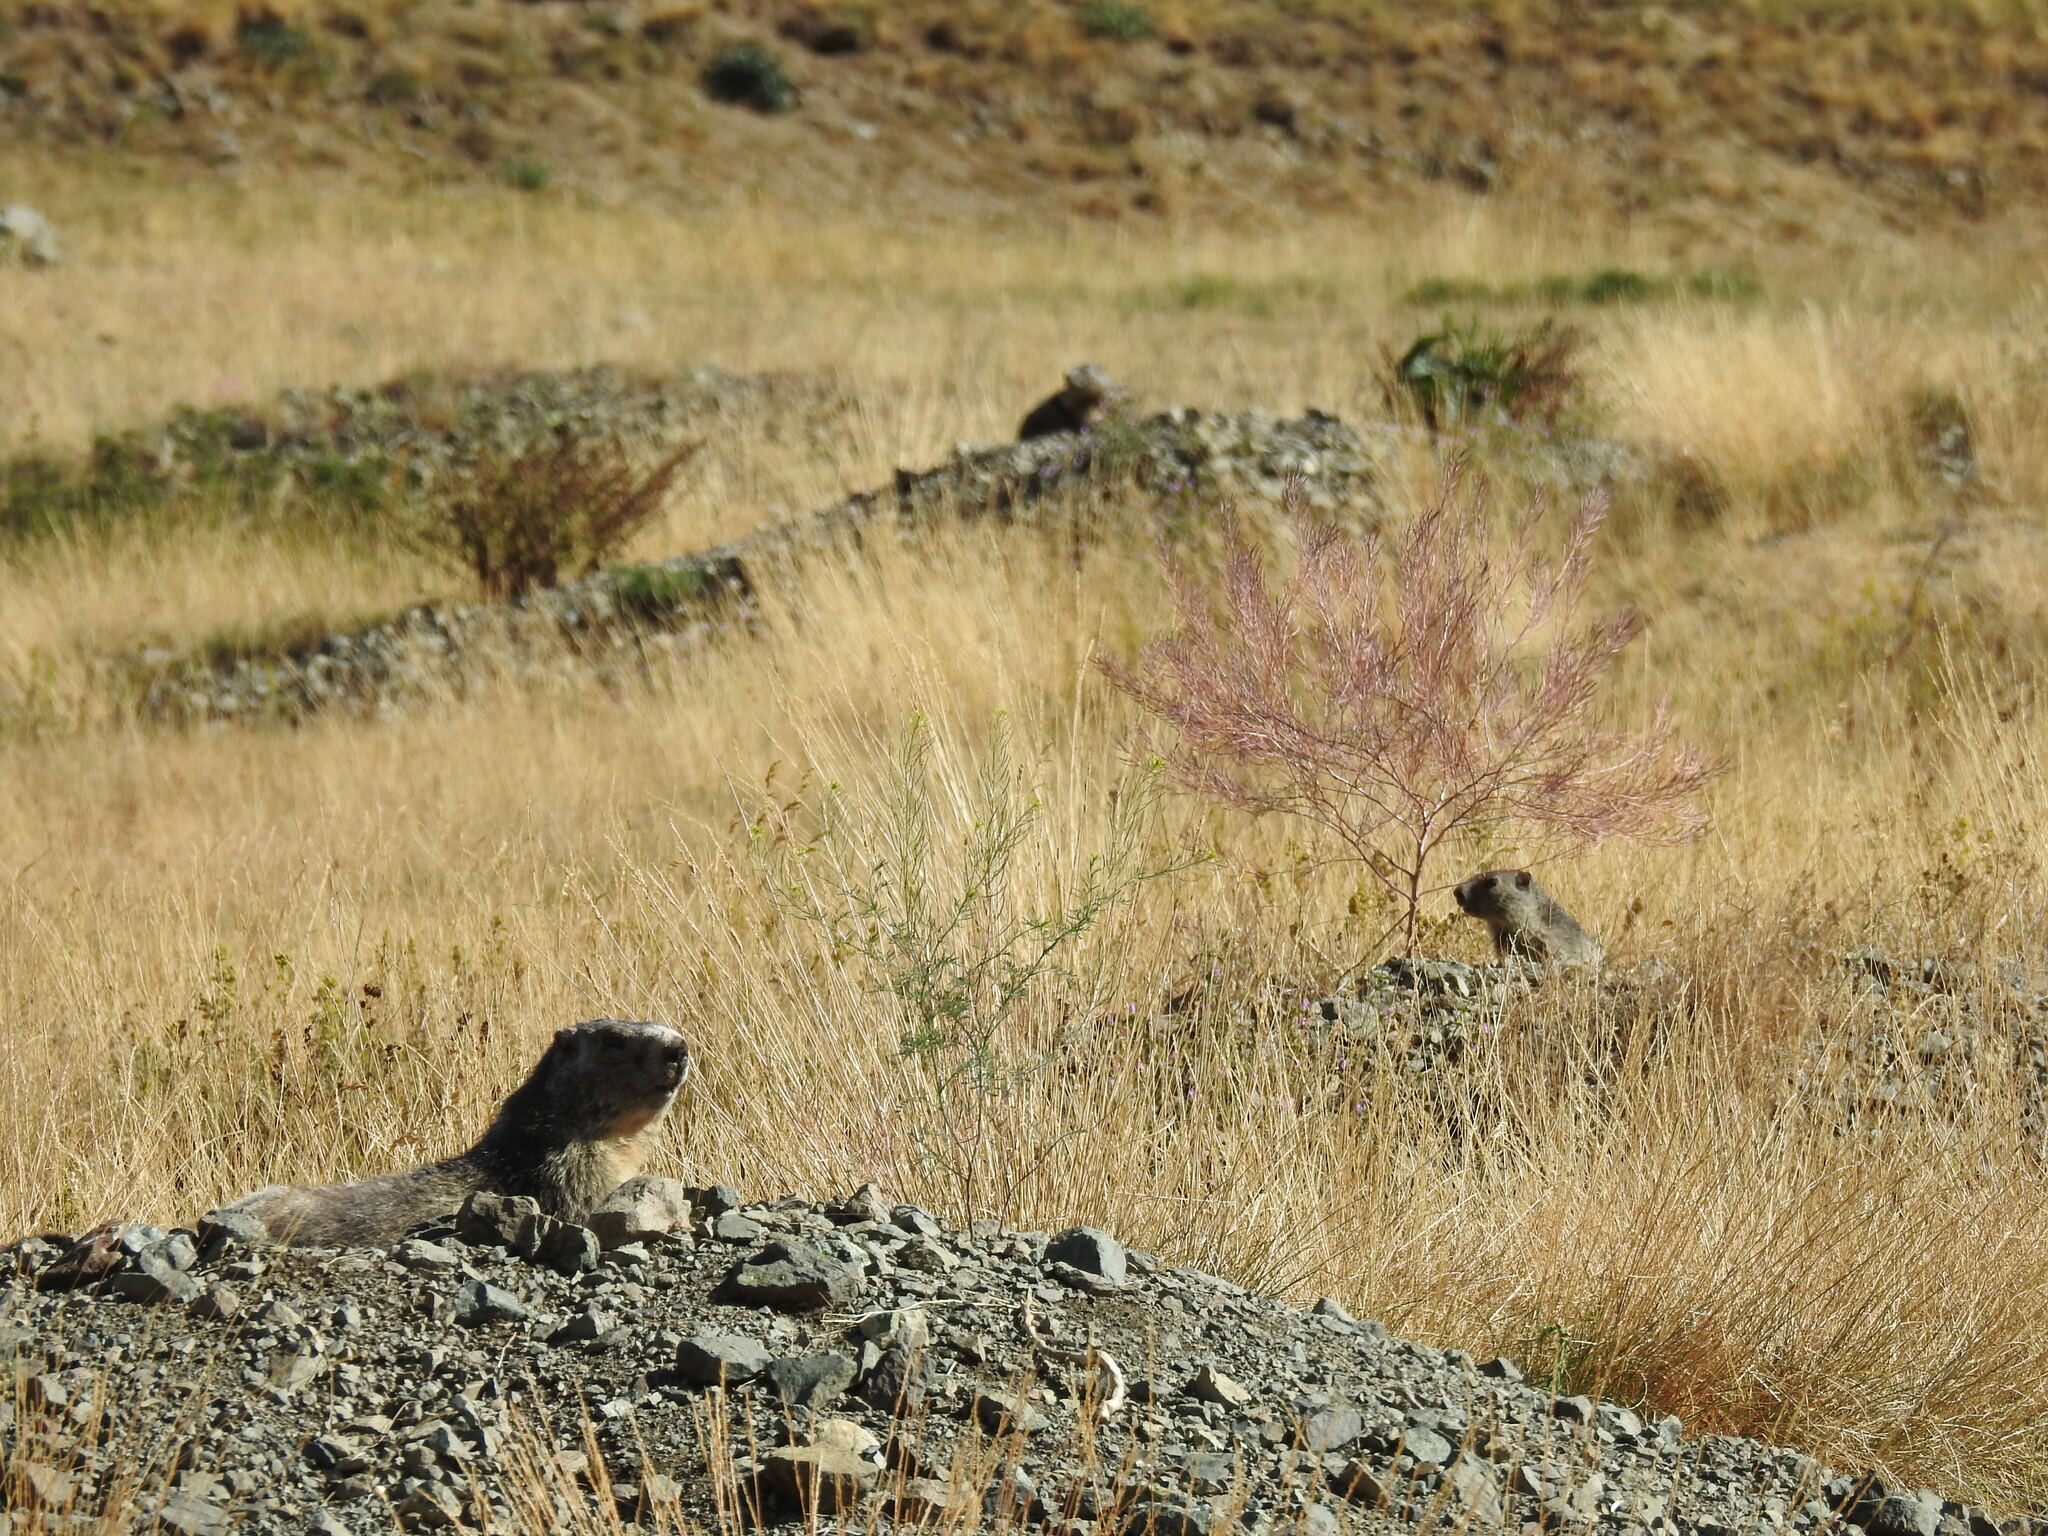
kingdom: Animalia
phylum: Chordata
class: Mammalia
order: Rodentia
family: Sciuridae
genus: Marmota
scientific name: Marmota marmota
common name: Alpine marmot
